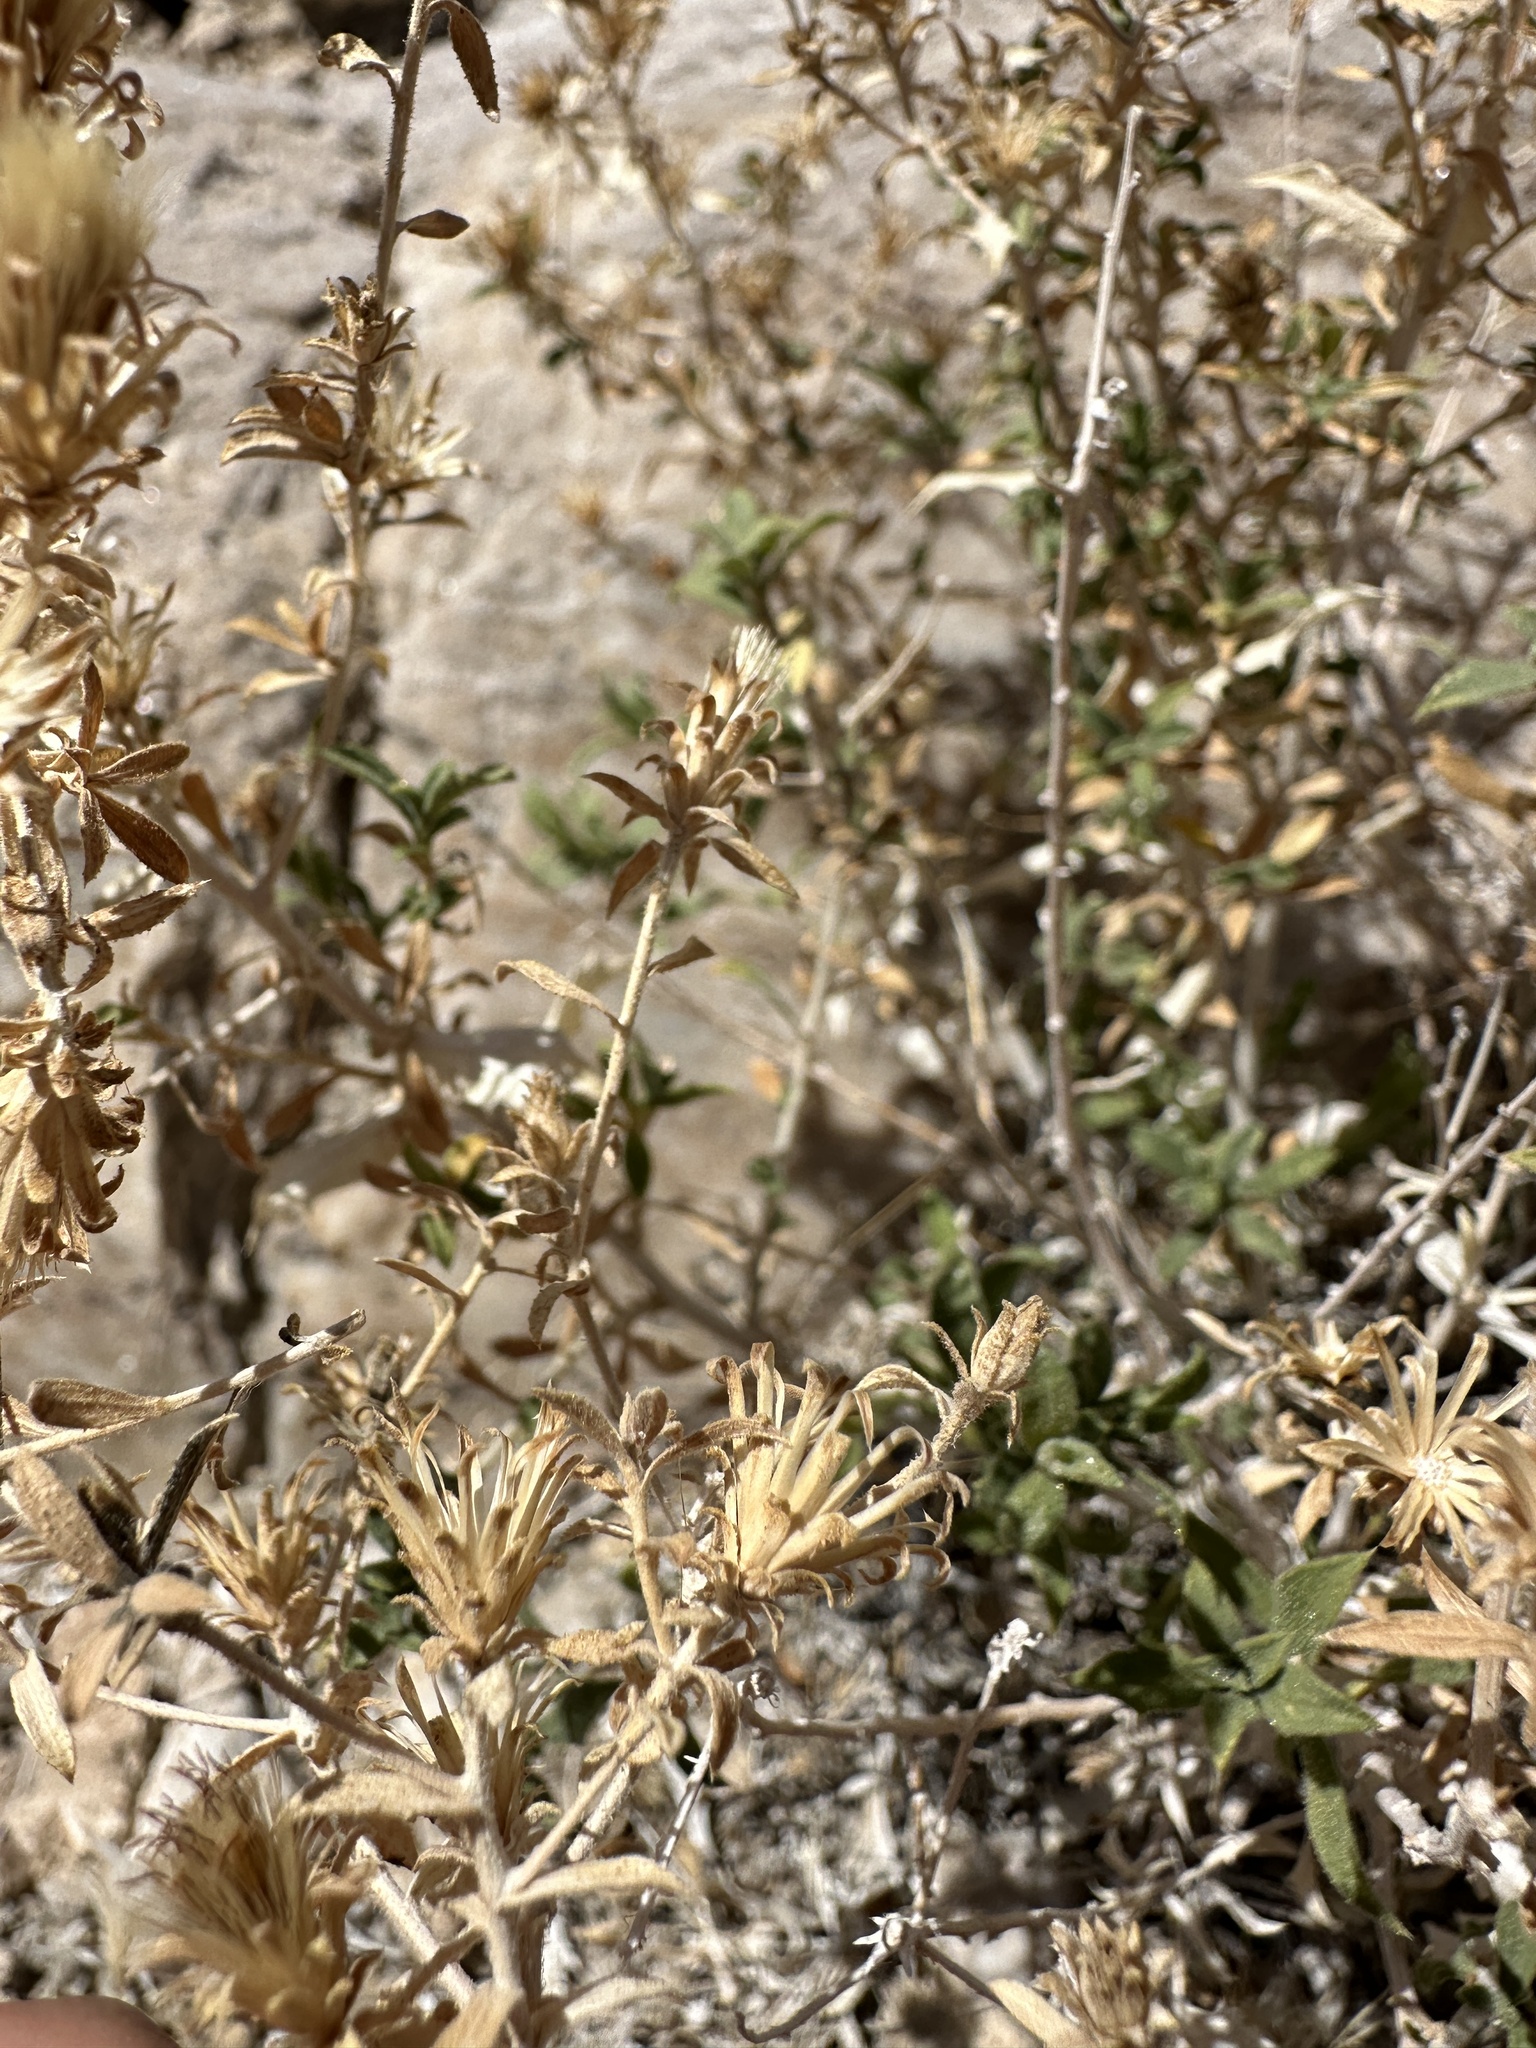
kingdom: Plantae
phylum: Tracheophyta
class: Magnoliopsida
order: Asterales
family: Asteraceae
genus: Adiaphila
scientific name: Adiaphila brickellioides
